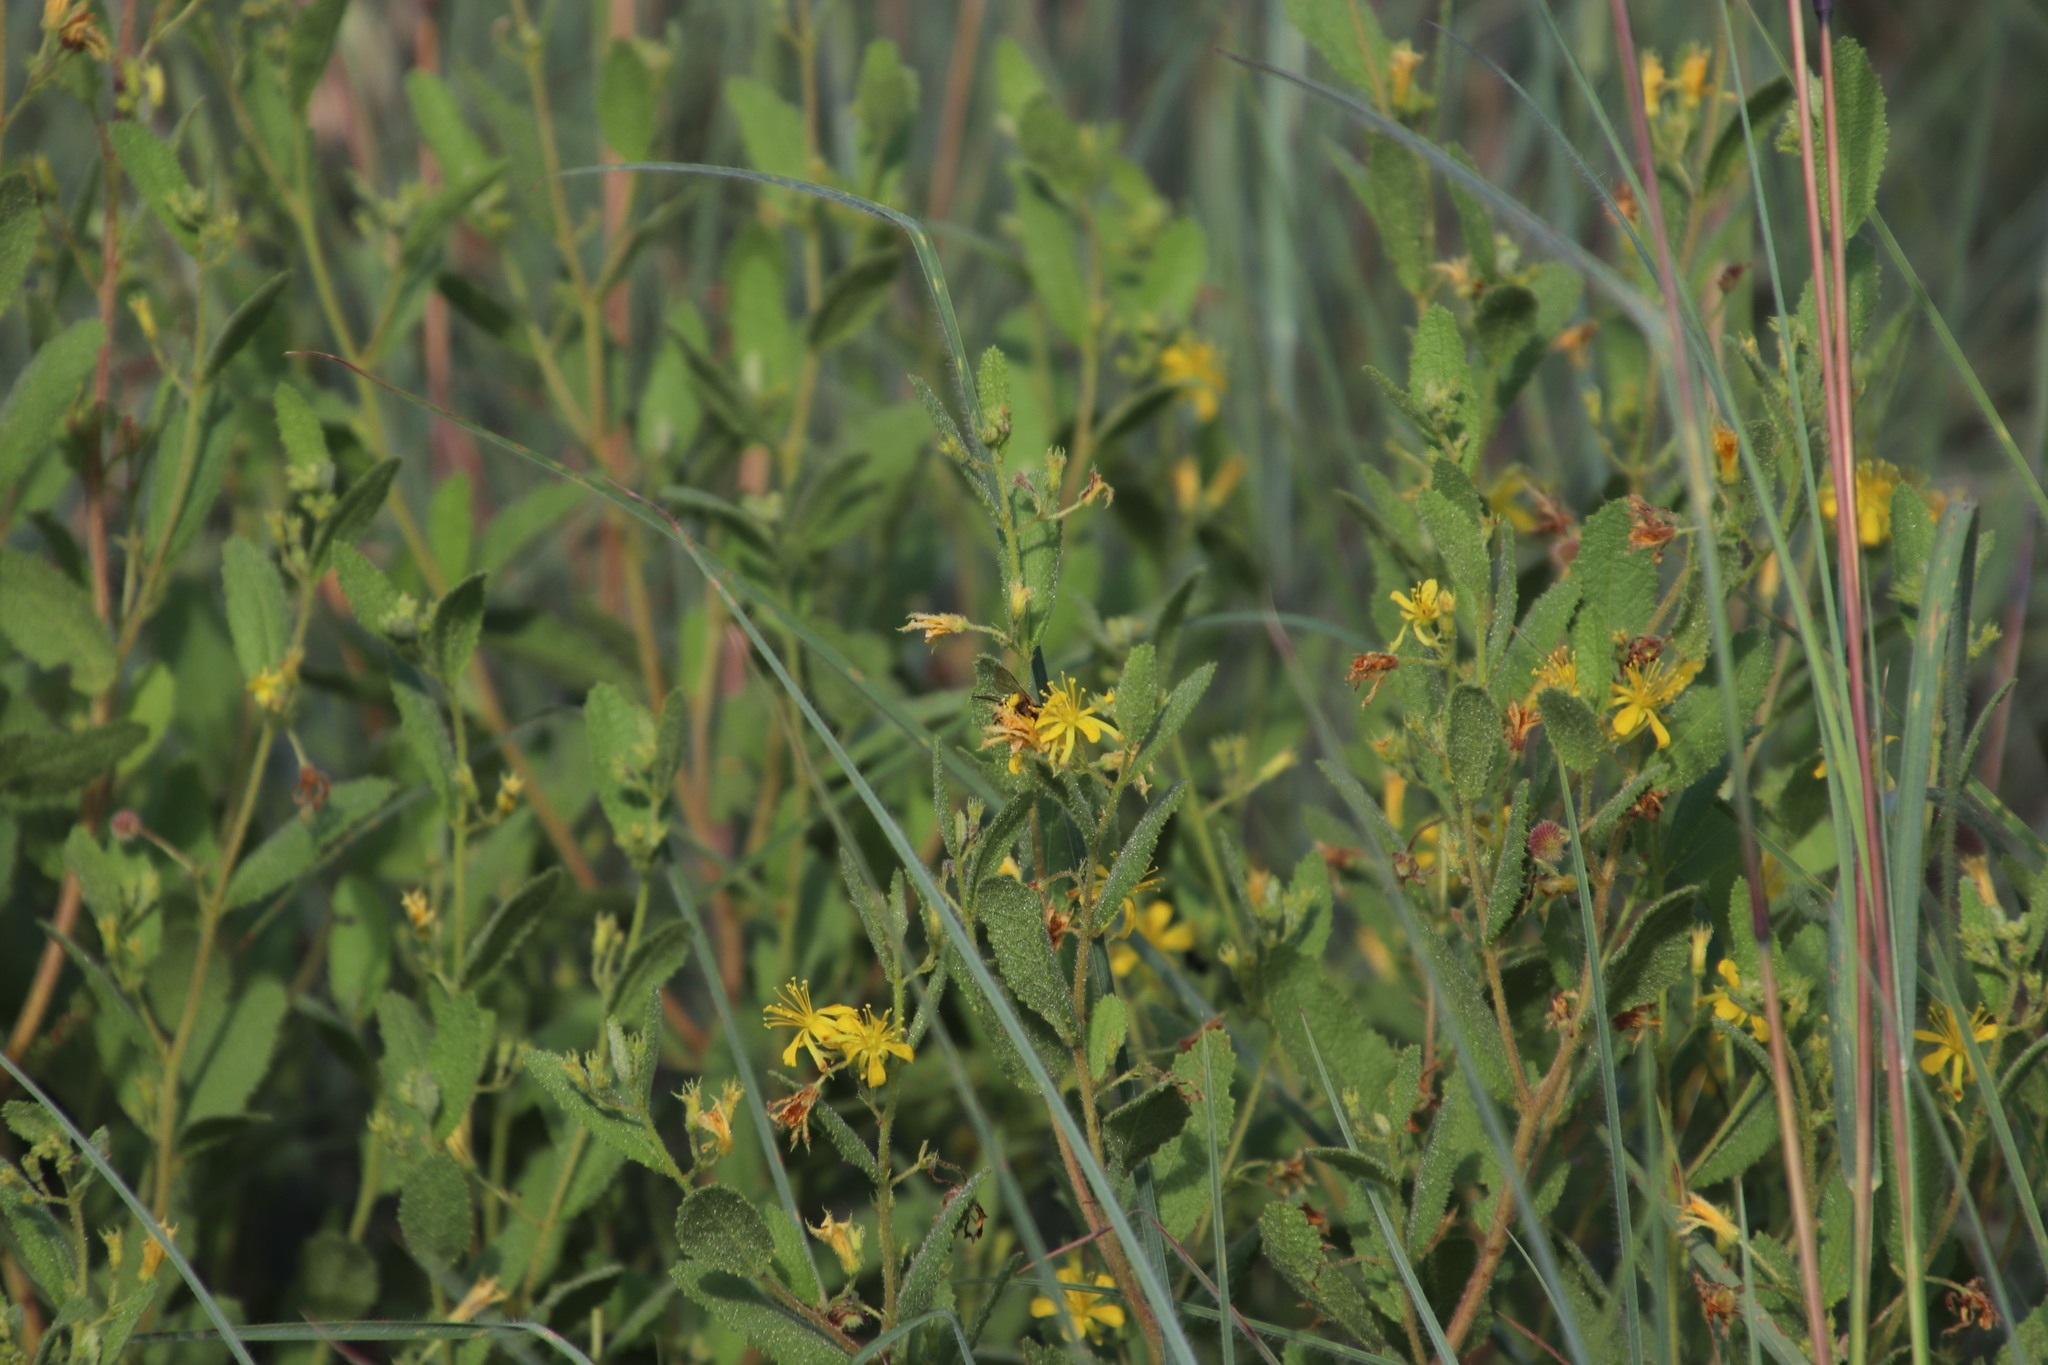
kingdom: Plantae
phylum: Tracheophyta
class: Magnoliopsida
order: Malvales
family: Malvaceae
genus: Triumfetta
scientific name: Triumfetta sonderi
